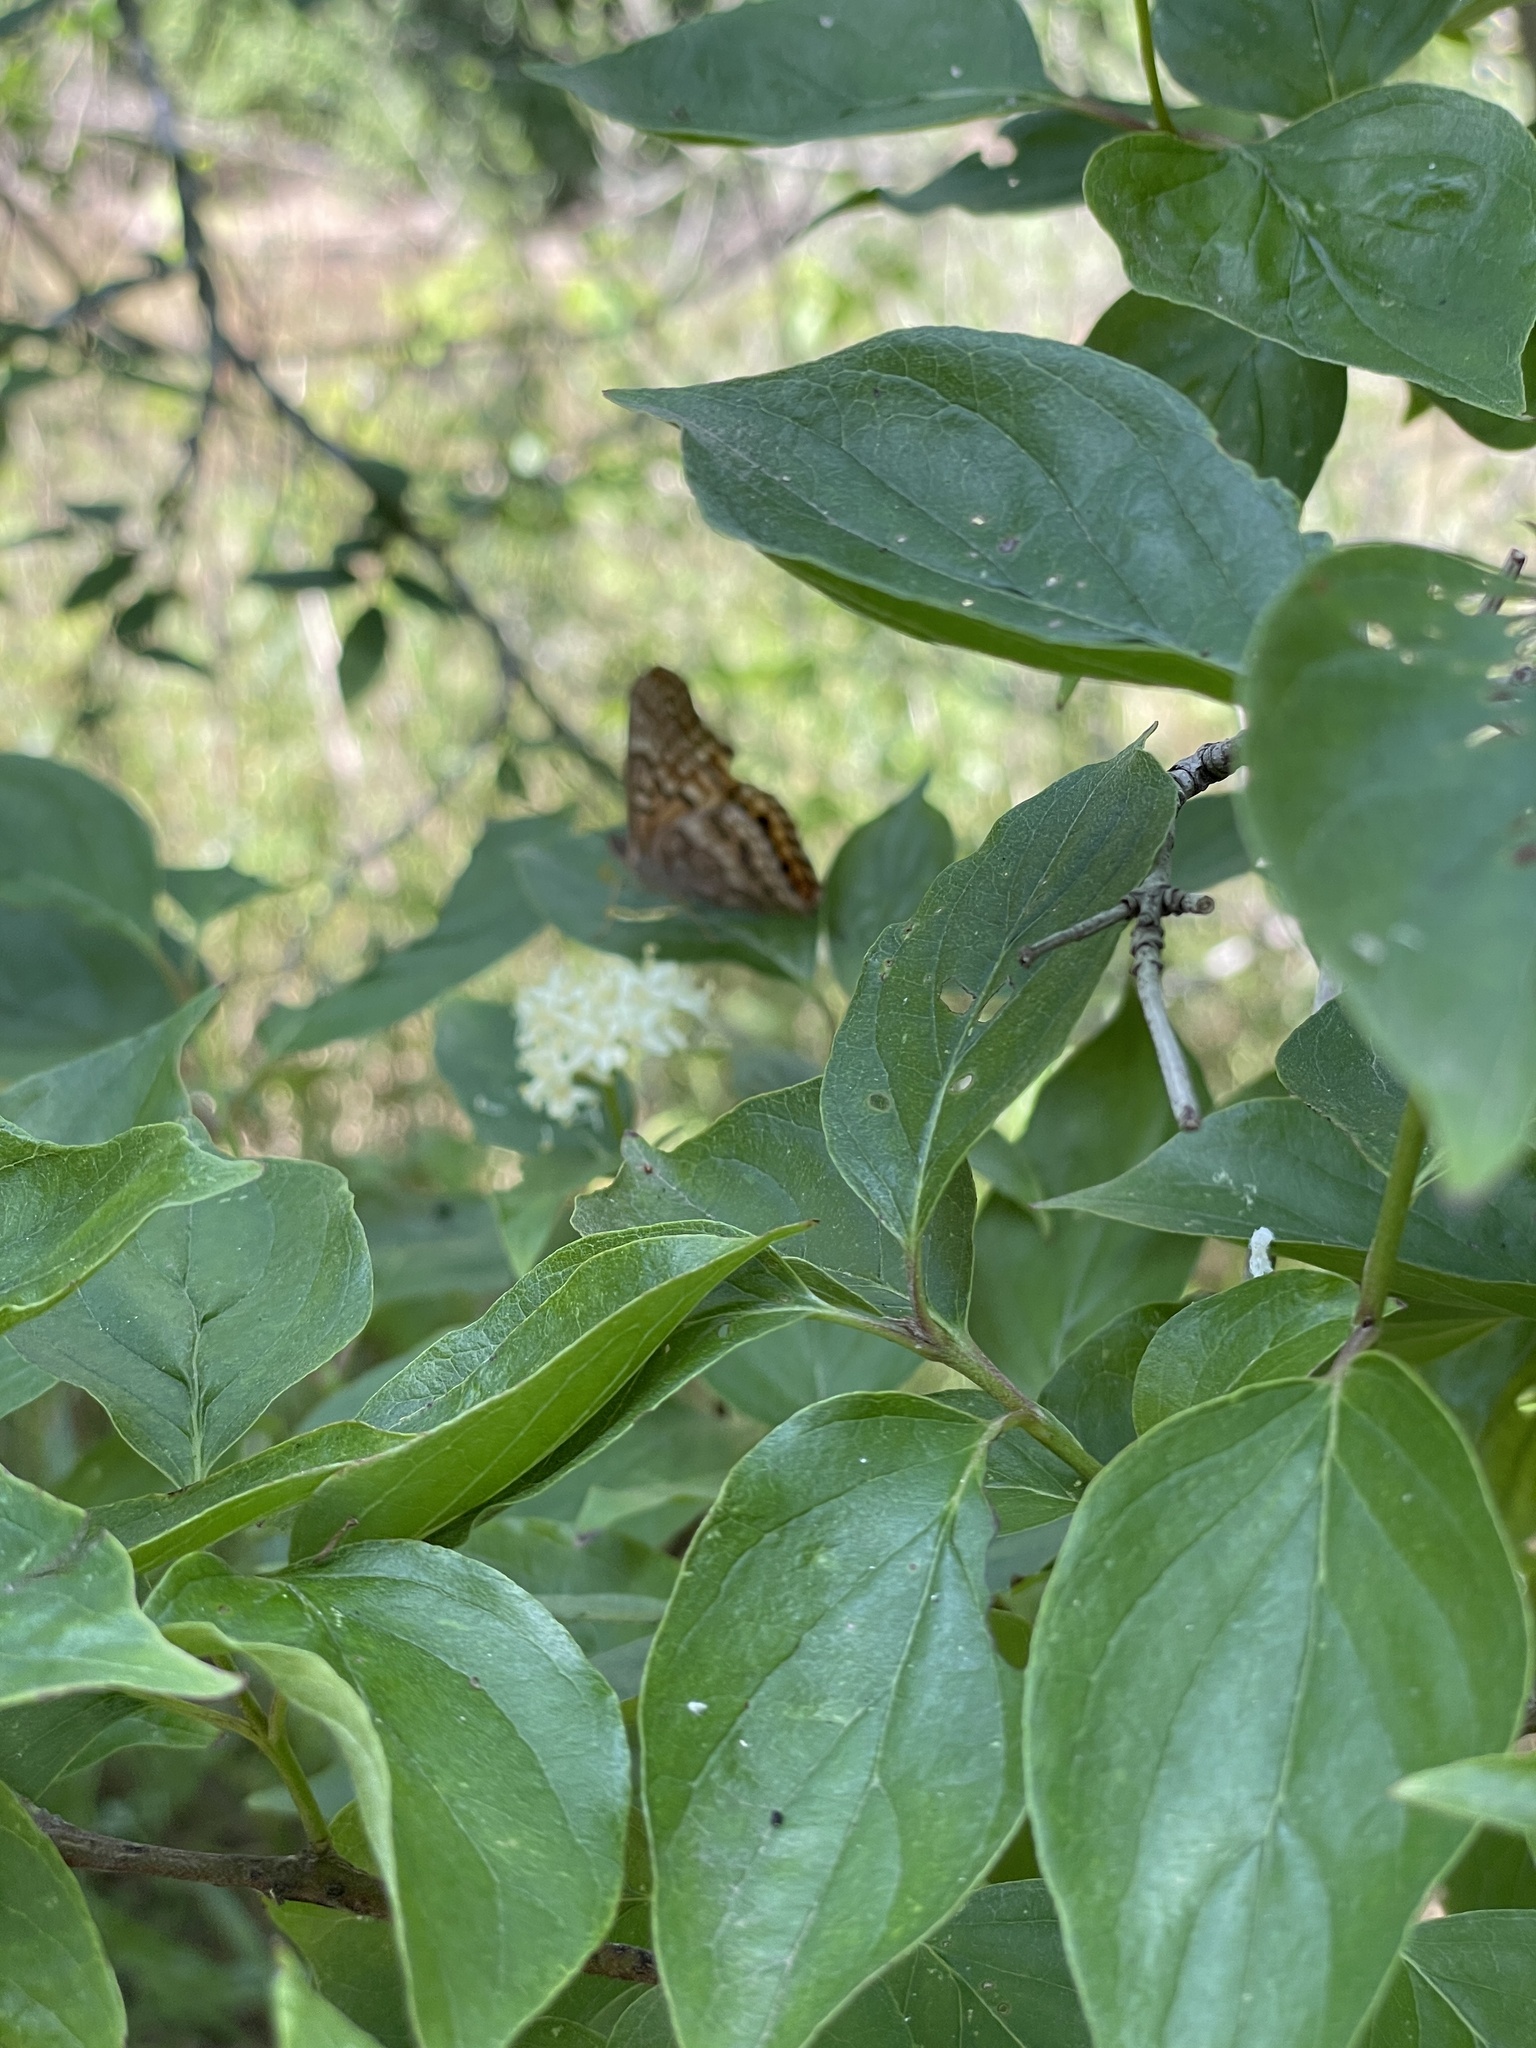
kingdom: Plantae
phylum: Tracheophyta
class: Magnoliopsida
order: Cornales
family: Cornaceae
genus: Cornus
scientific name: Cornus drummondii
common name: Rough-leaf dogwood
